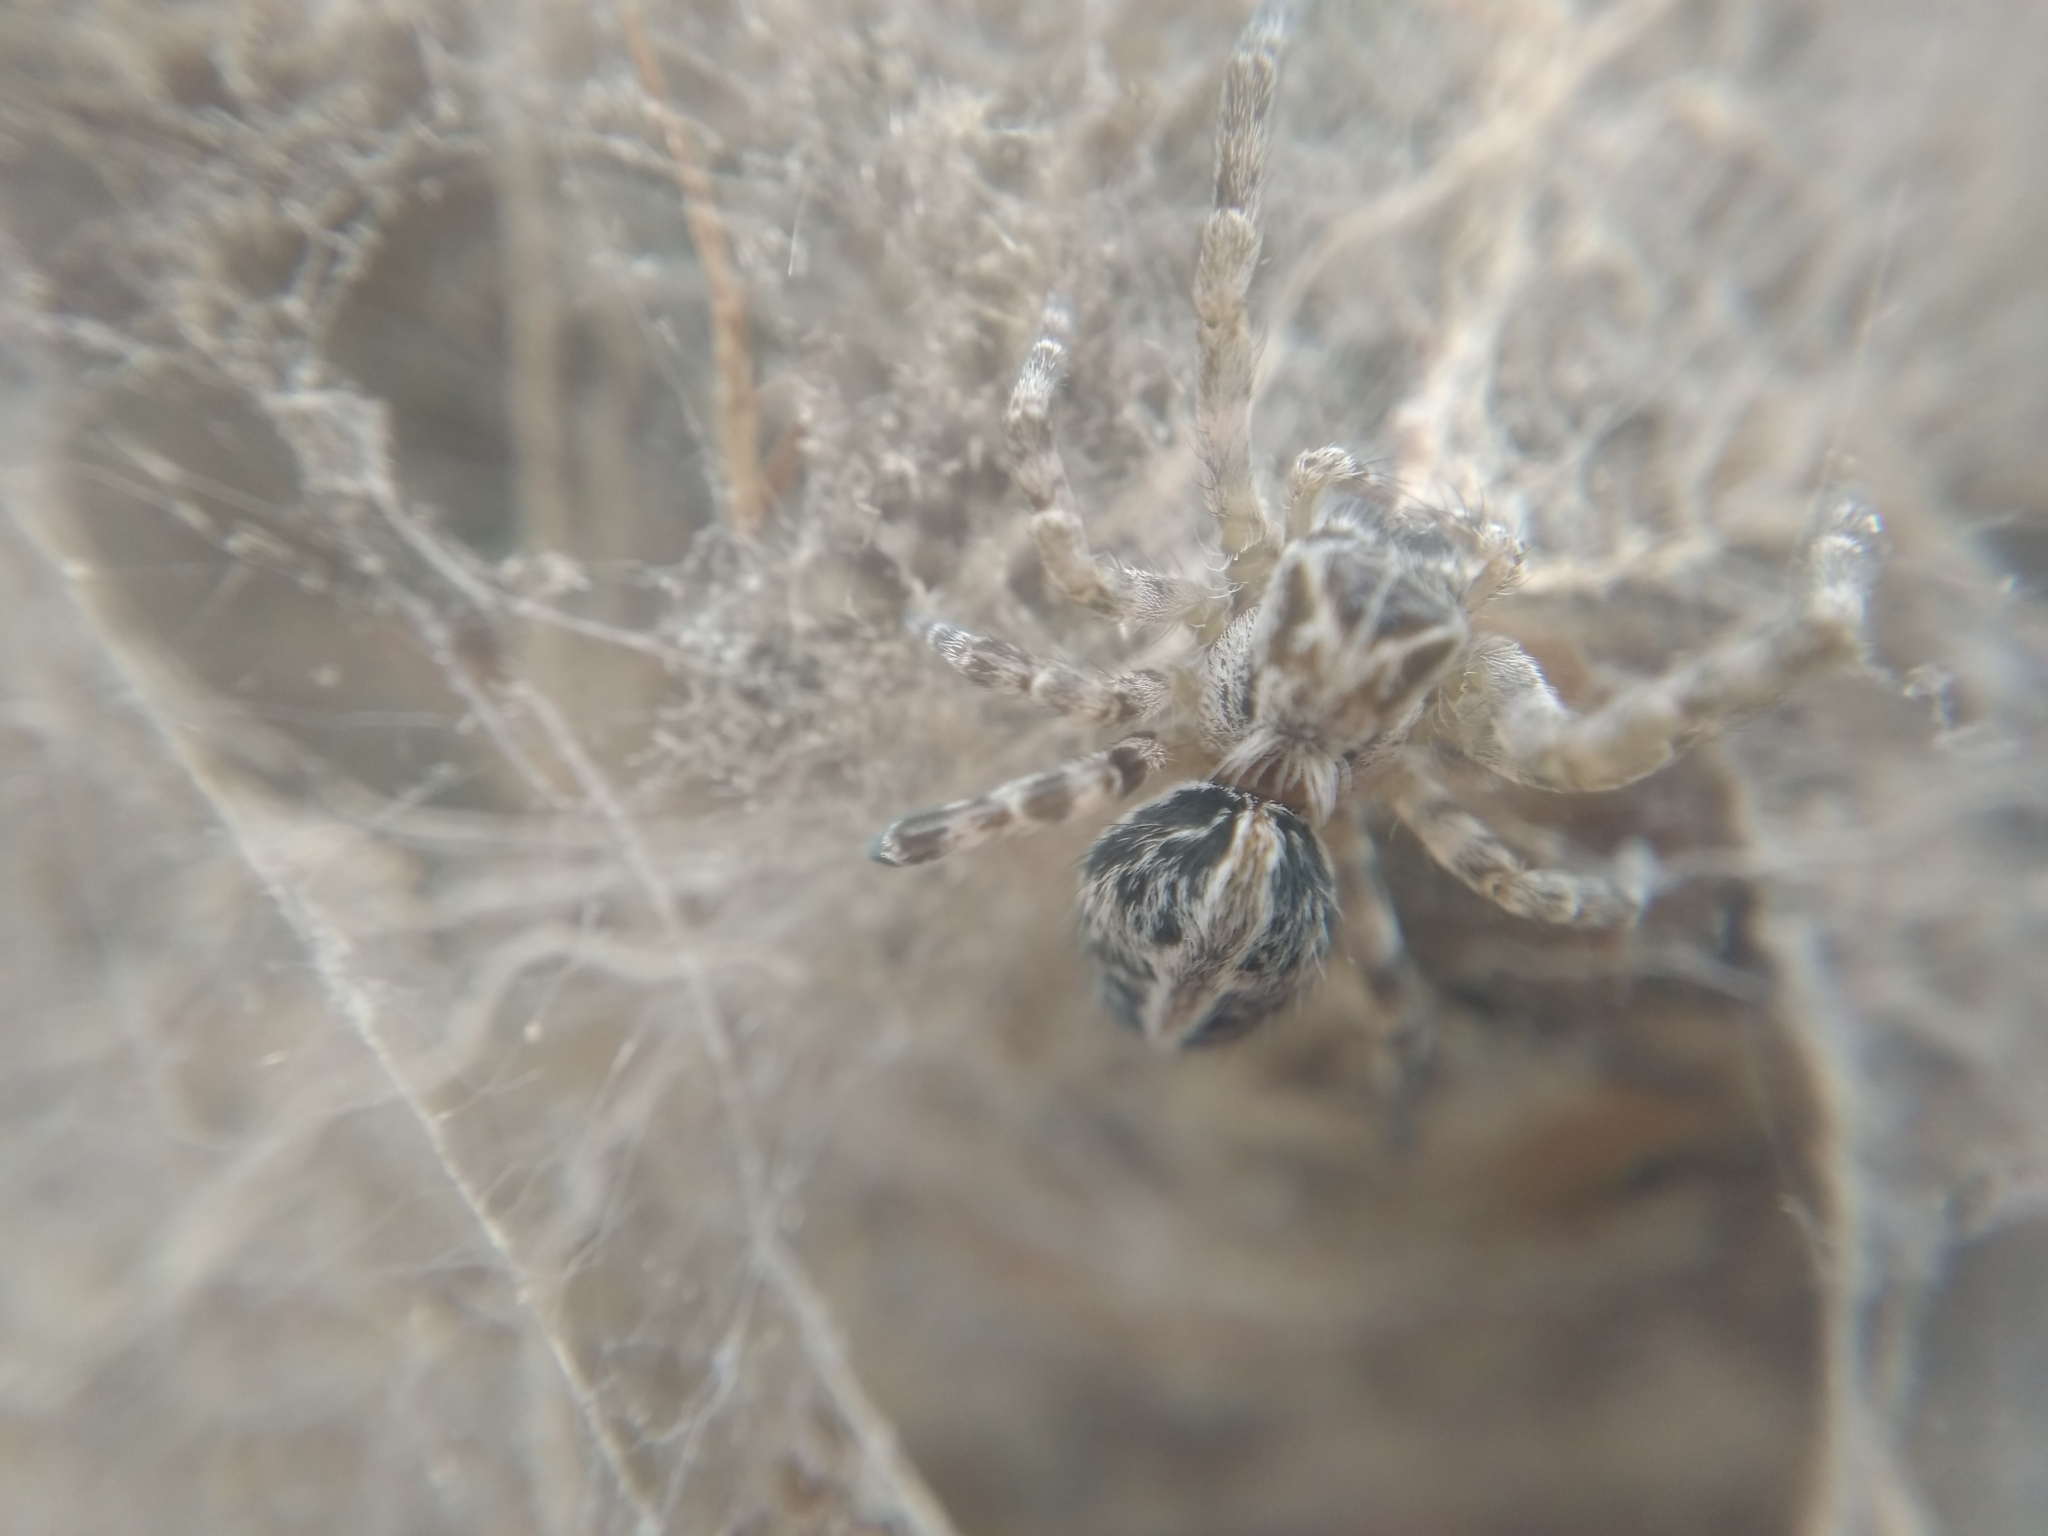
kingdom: Animalia
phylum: Arthropoda
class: Arachnida
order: Araneae
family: Eresidae
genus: Stegodyphus
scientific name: Stegodyphus dumicola
